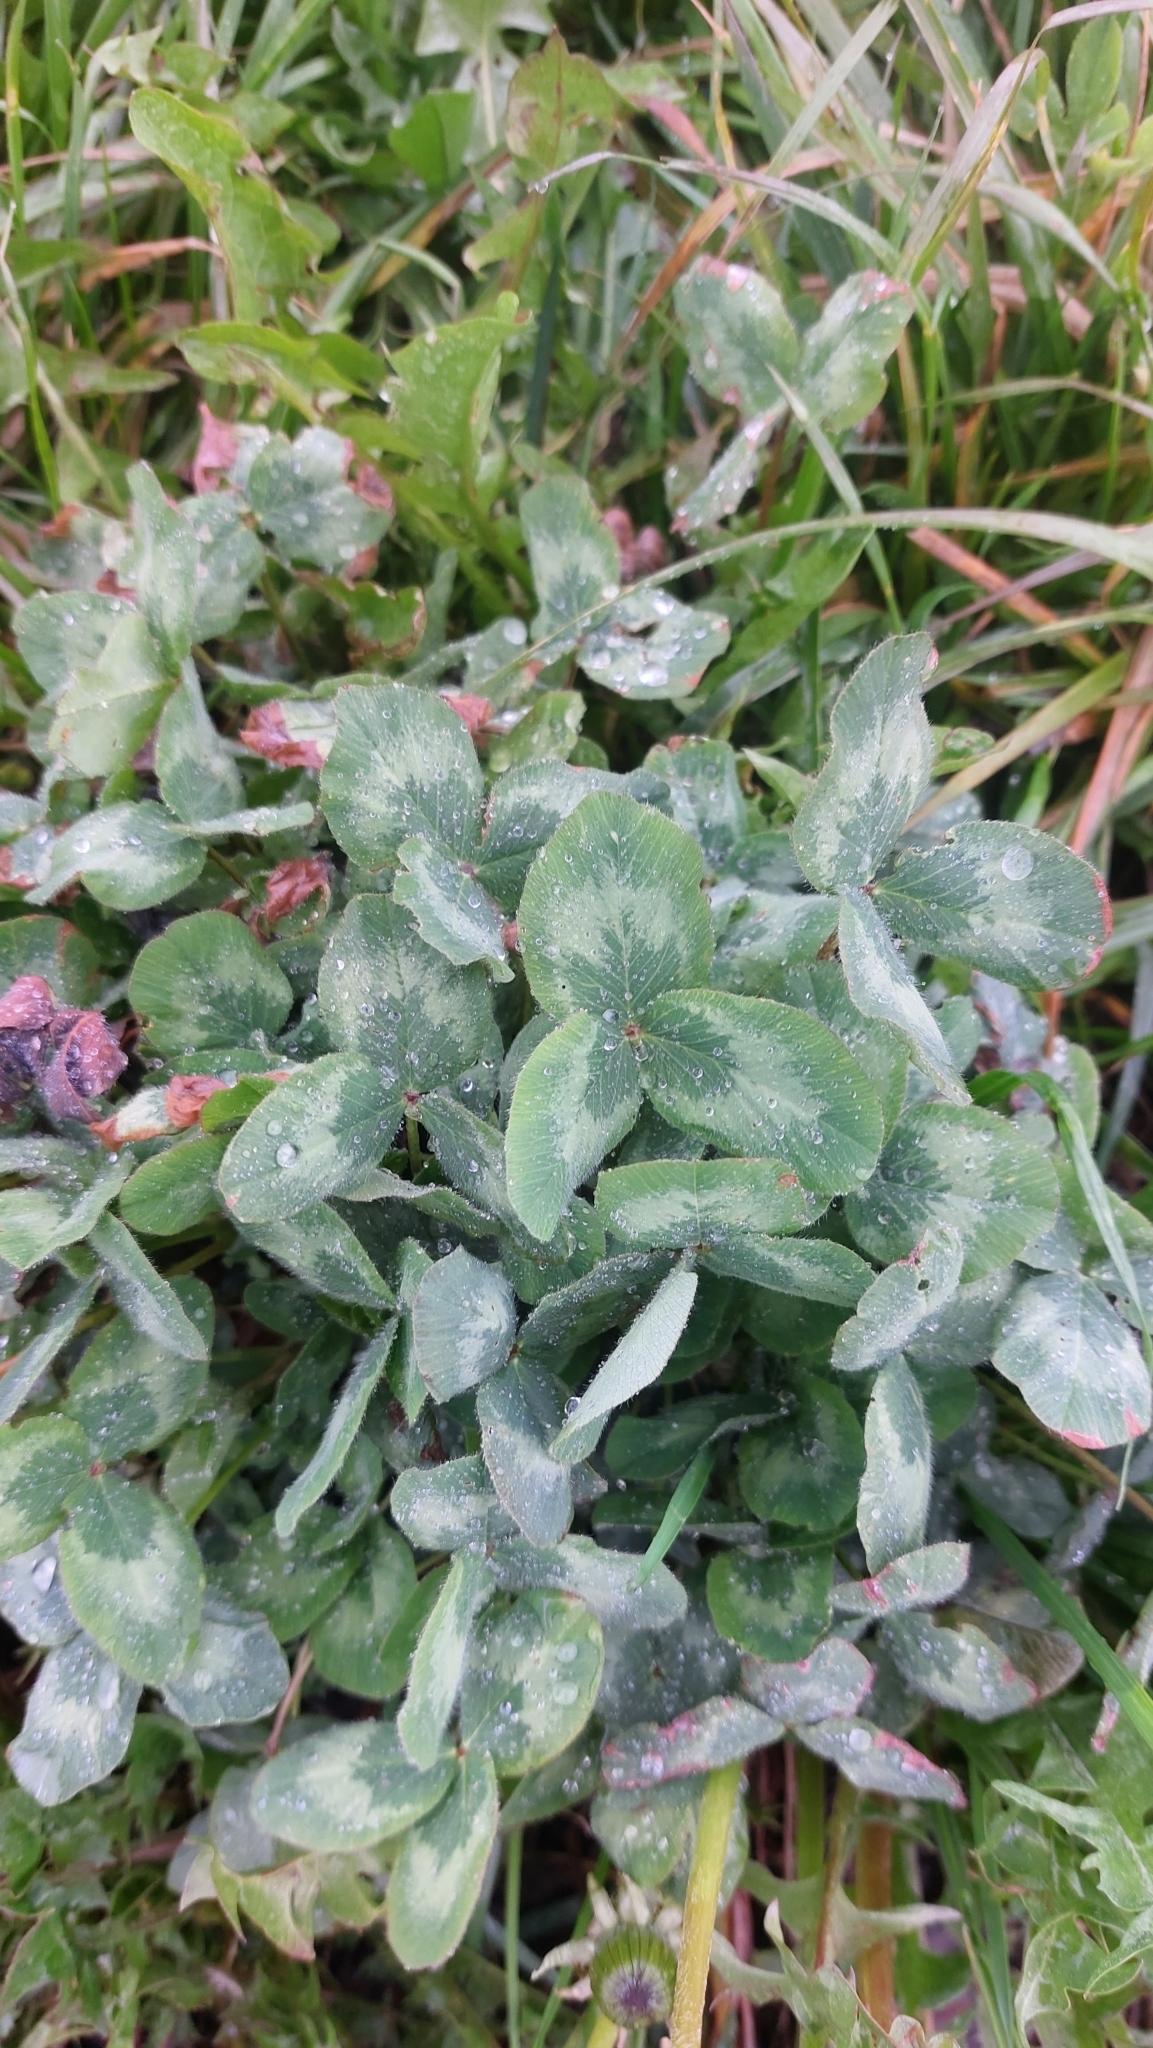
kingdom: Plantae
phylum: Tracheophyta
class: Magnoliopsida
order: Fabales
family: Fabaceae
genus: Trifolium
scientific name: Trifolium pratense
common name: Red clover
